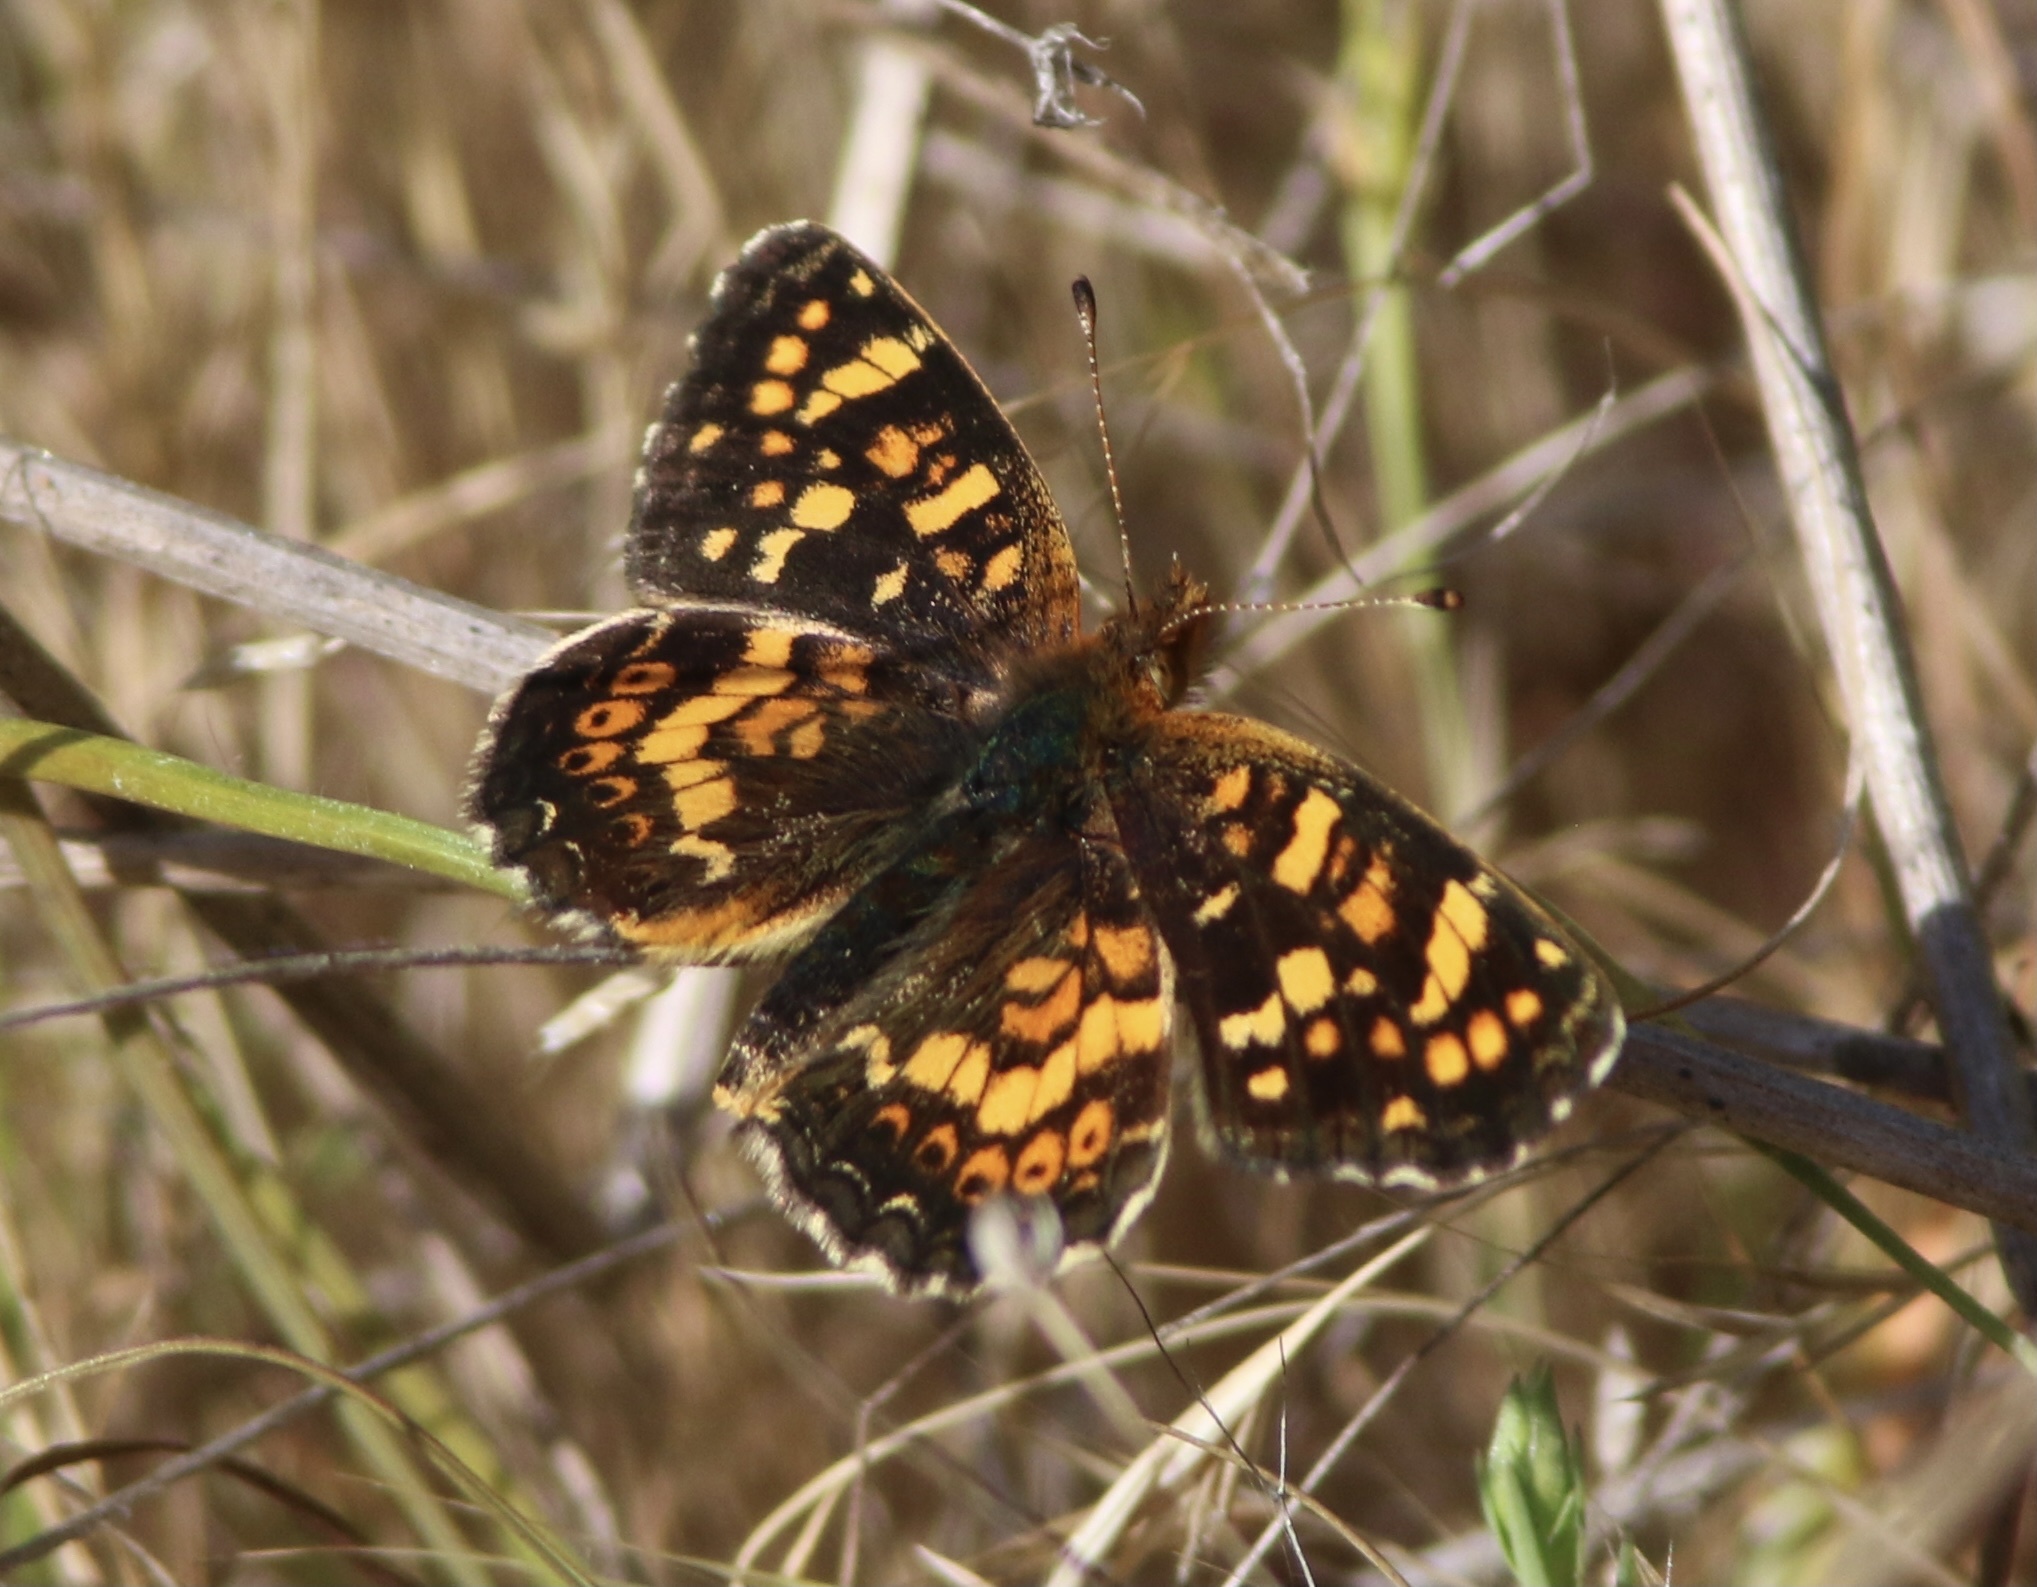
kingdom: Animalia
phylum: Arthropoda
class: Insecta
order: Lepidoptera
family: Nymphalidae
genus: Phyciodes
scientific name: Phyciodes tharos
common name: Pearl crescent
